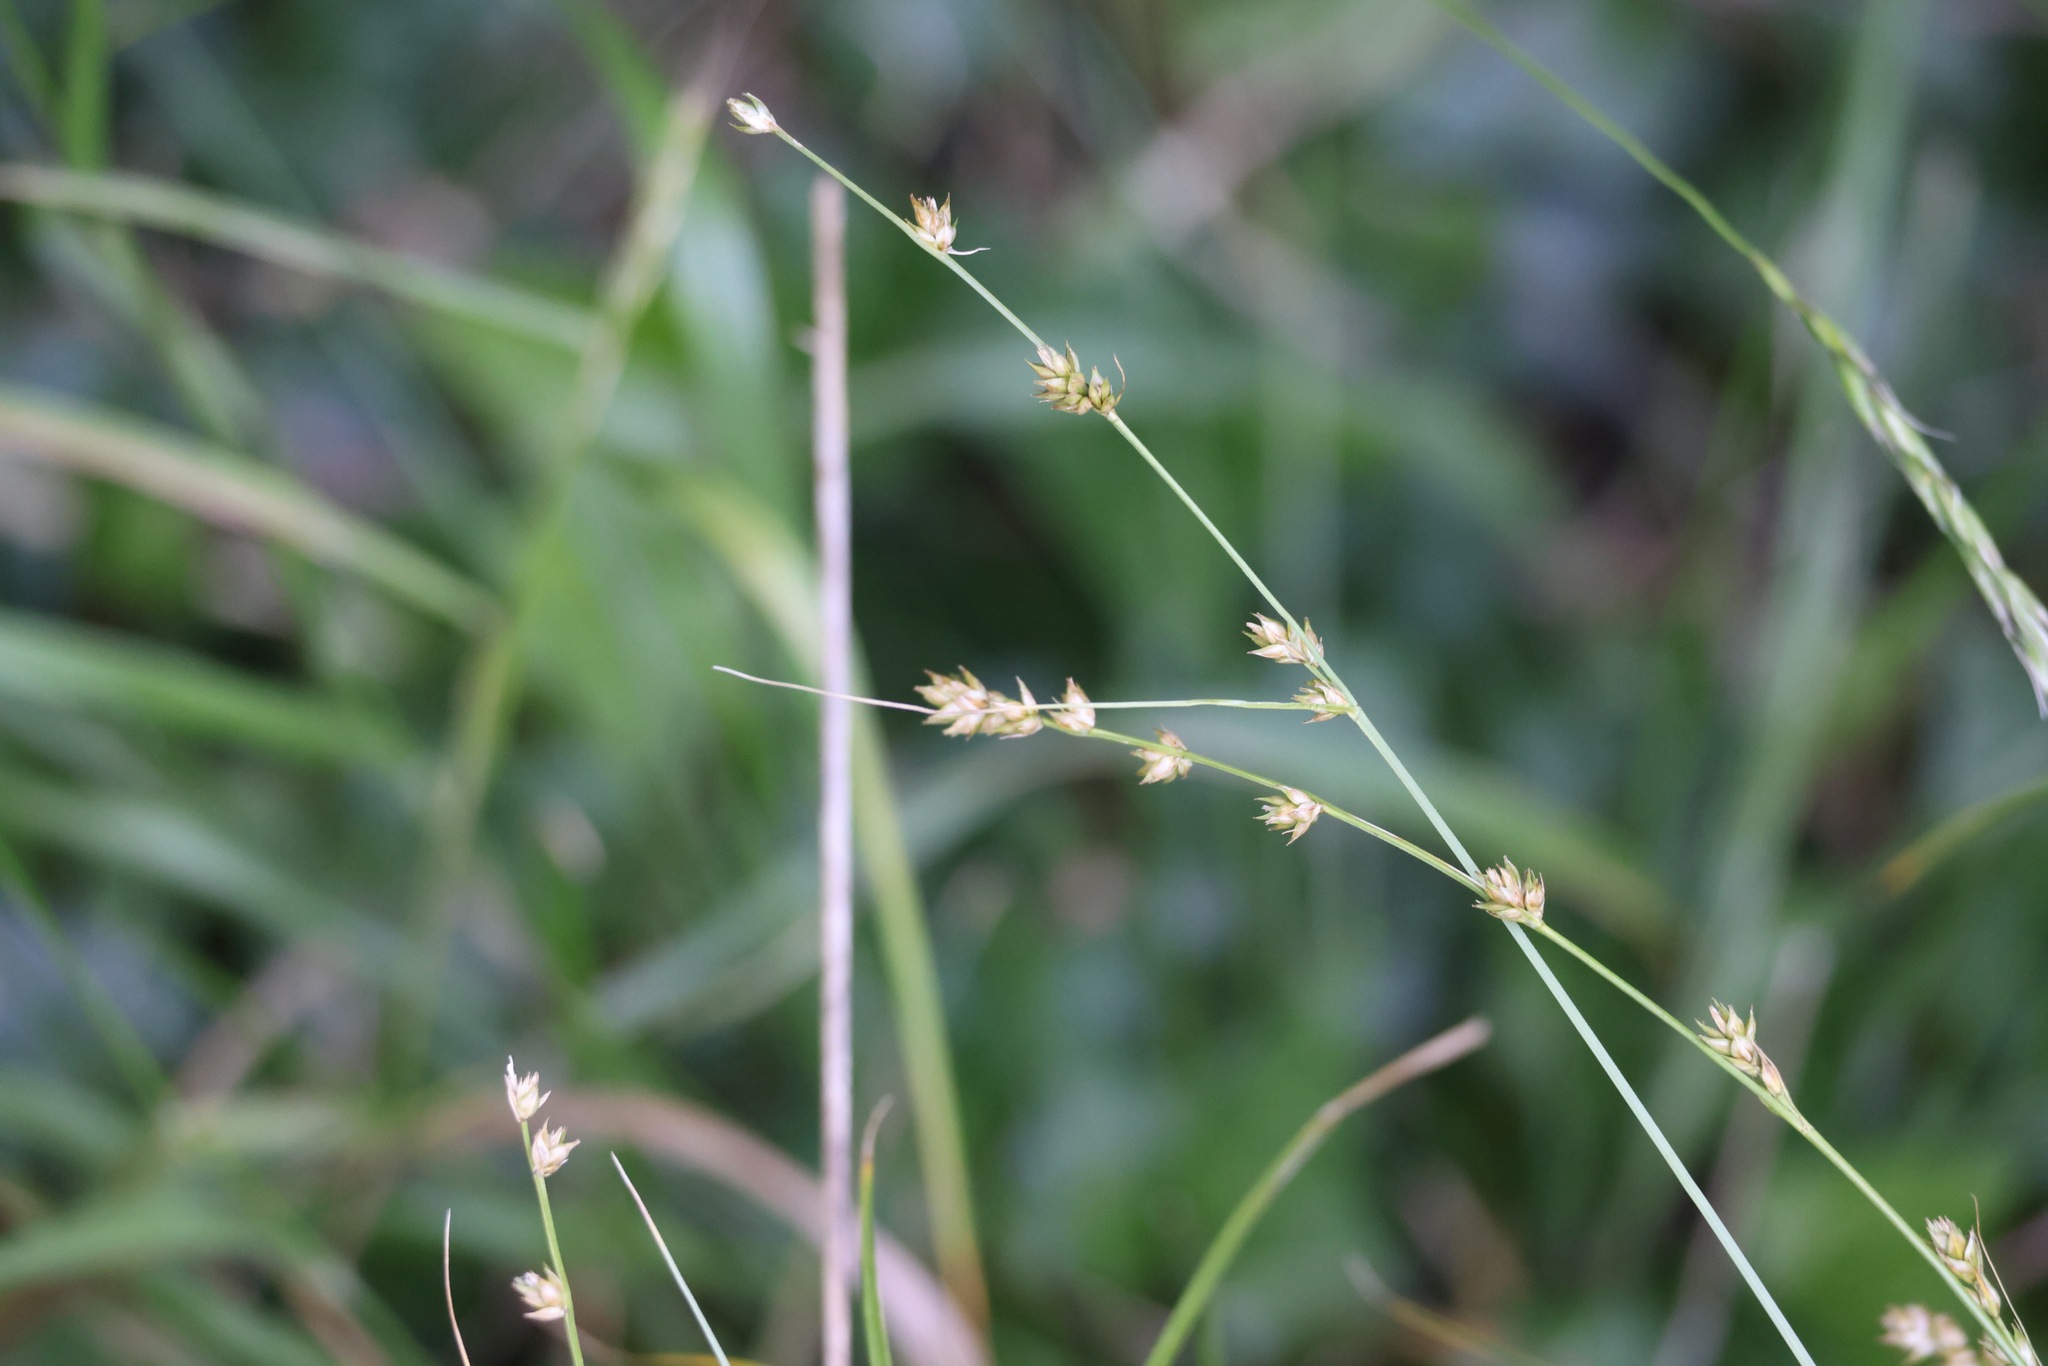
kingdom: Plantae
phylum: Tracheophyta
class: Liliopsida
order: Poales
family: Cyperaceae
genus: Carex
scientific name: Carex divulsa
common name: Grassland sedge
